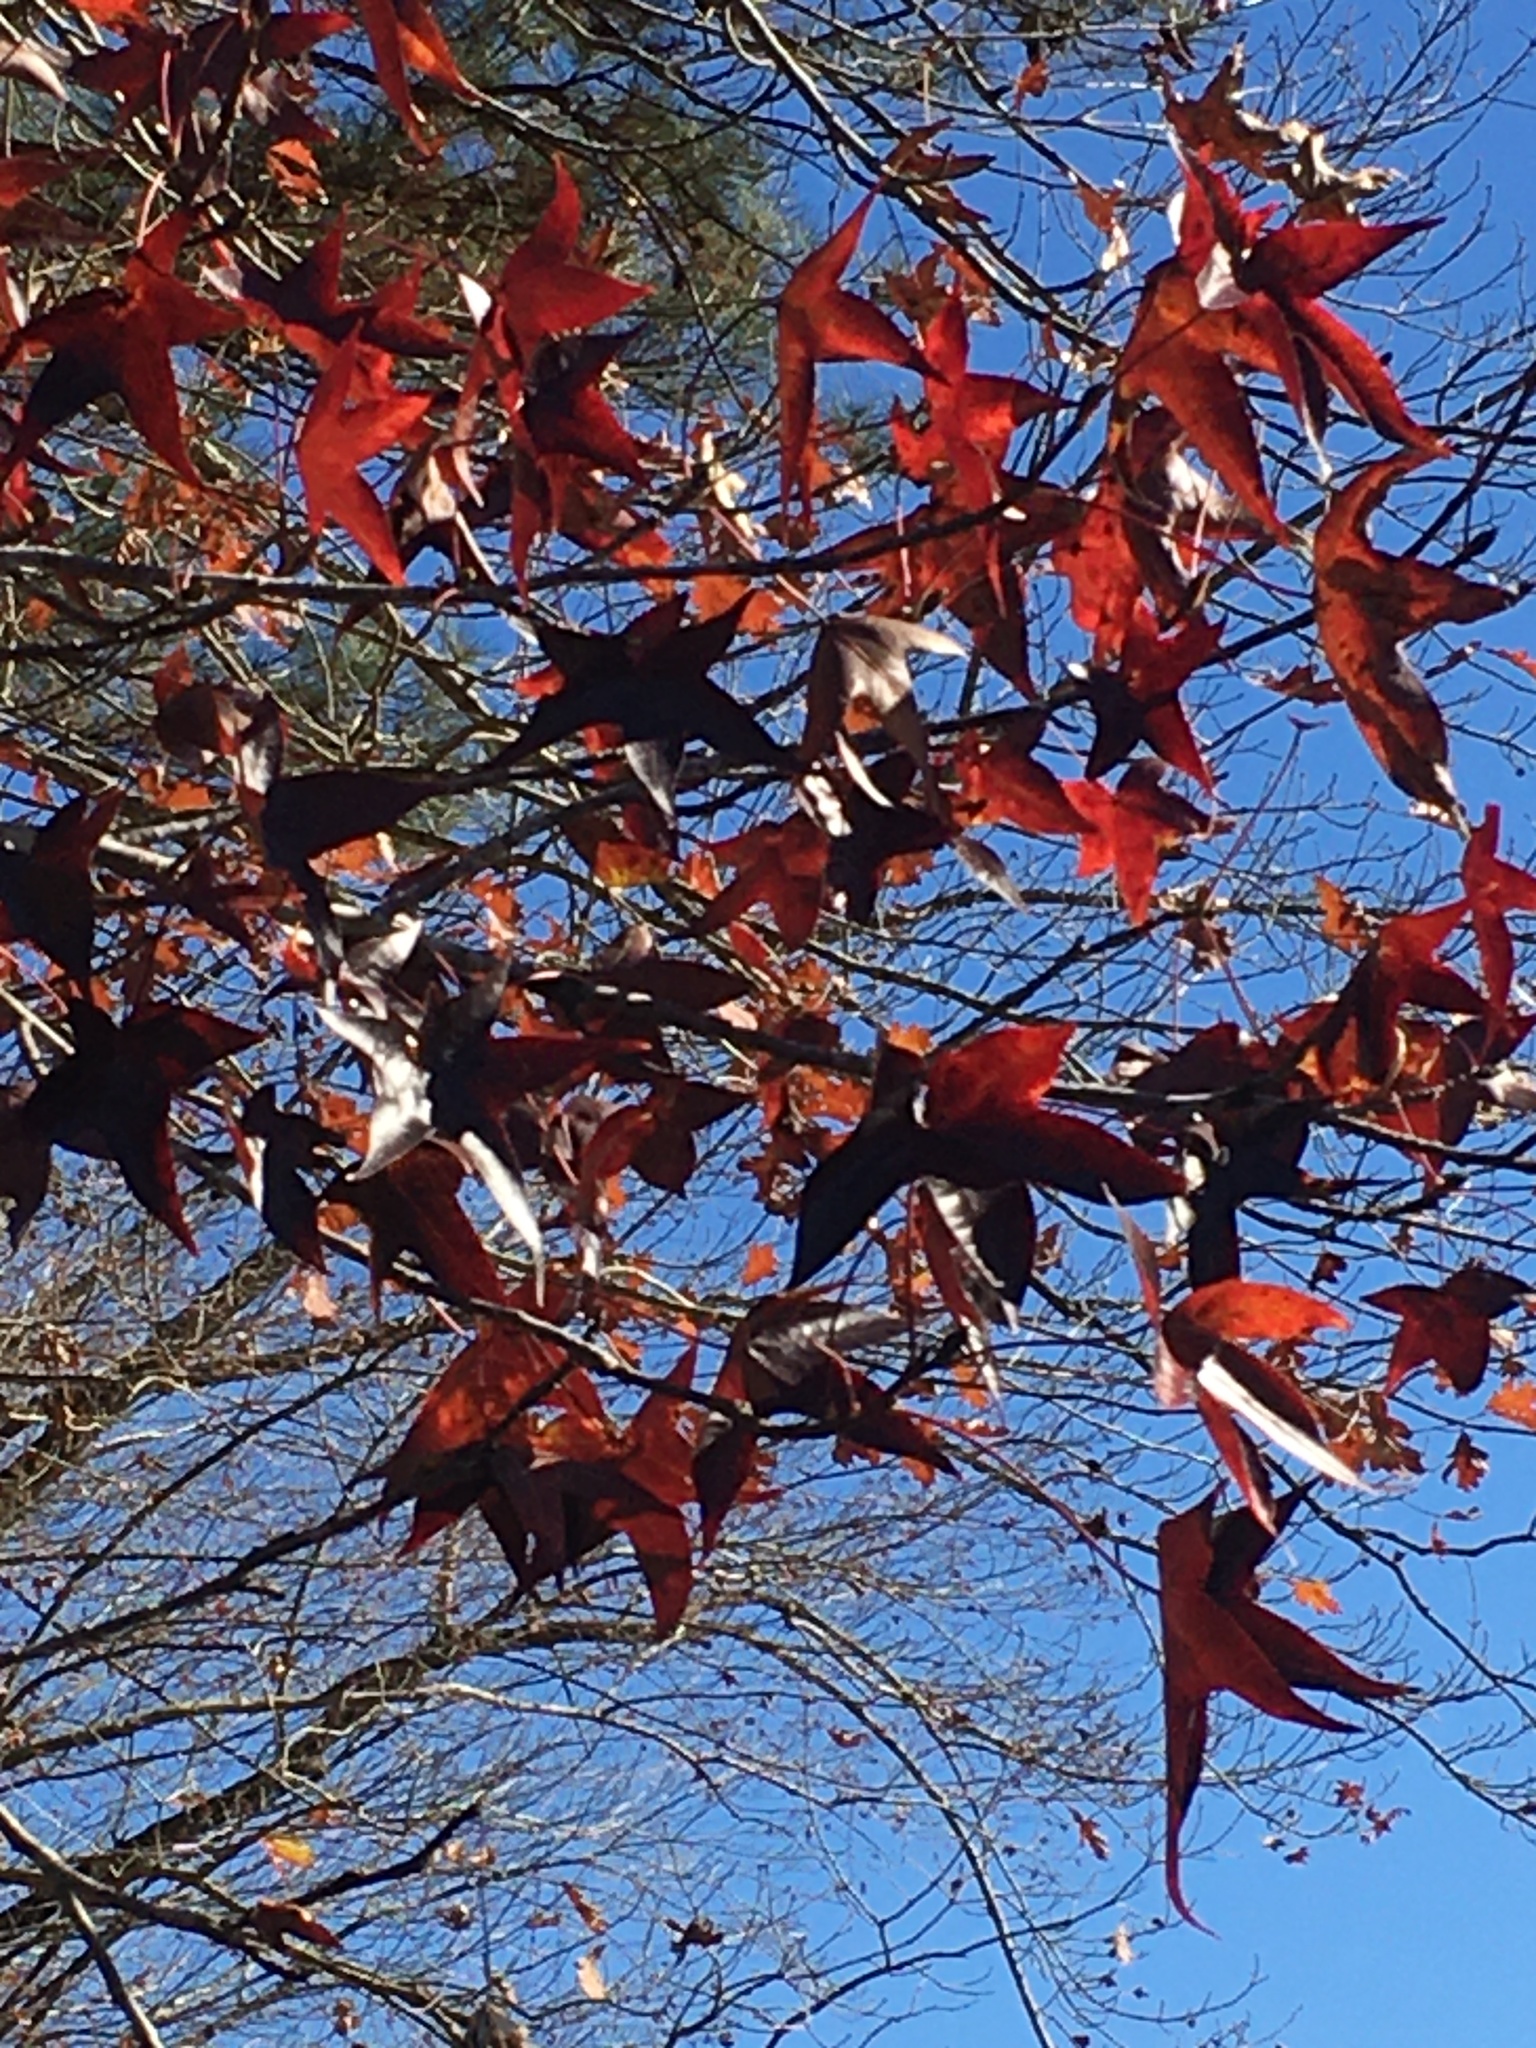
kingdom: Plantae
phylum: Tracheophyta
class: Magnoliopsida
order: Saxifragales
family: Altingiaceae
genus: Liquidambar
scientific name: Liquidambar styraciflua
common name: Sweet gum
